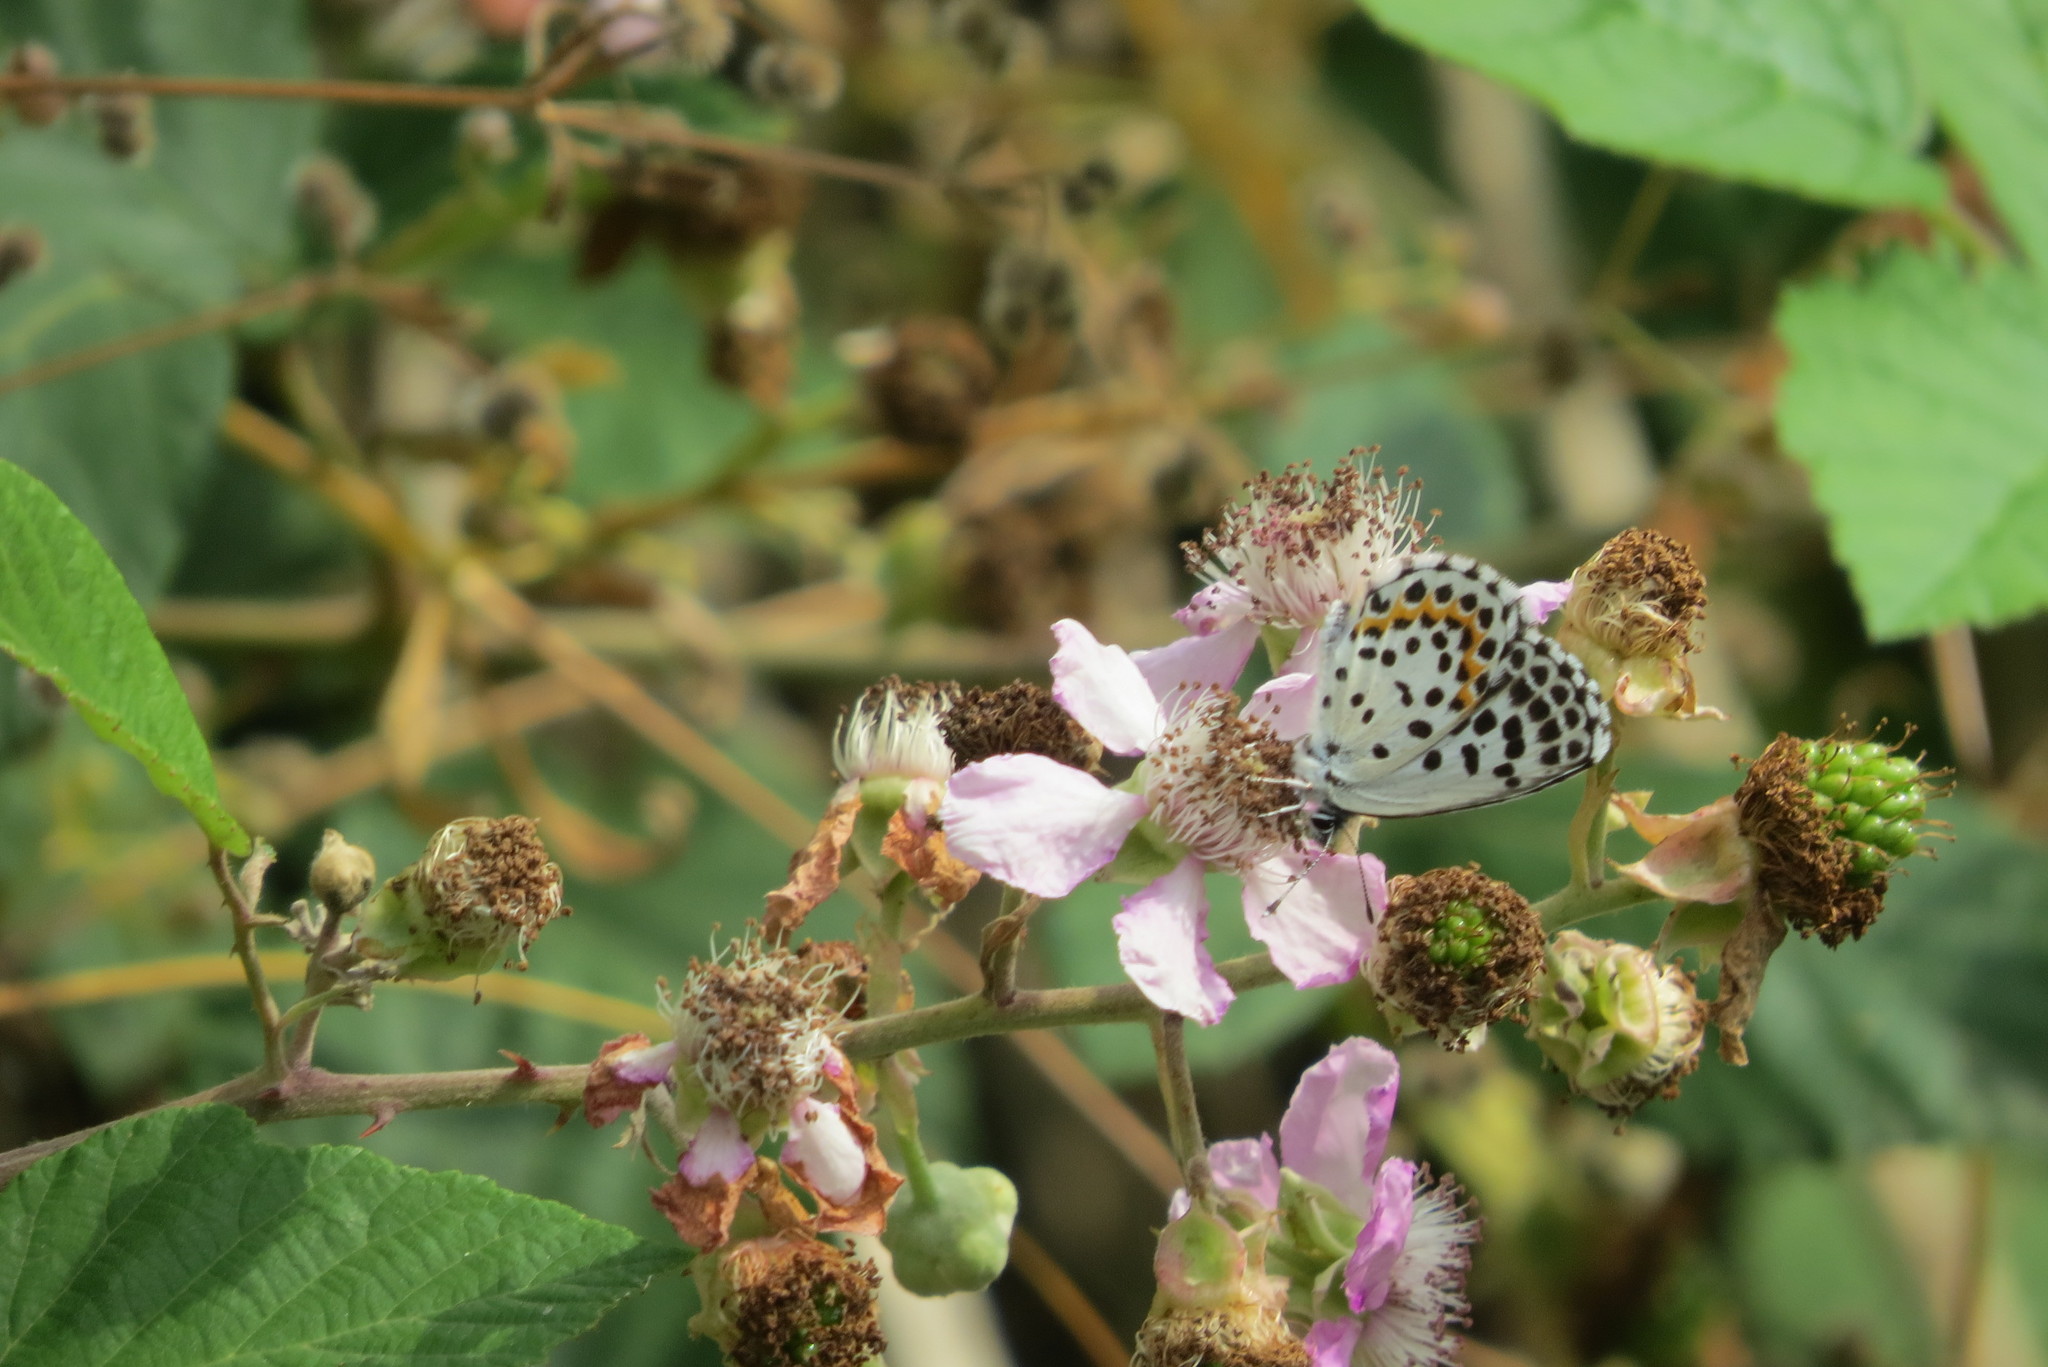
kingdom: Animalia
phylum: Arthropoda
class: Insecta
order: Lepidoptera
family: Lycaenidae
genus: Scolitantides
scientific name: Scolitantides orion
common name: Chequered blue
